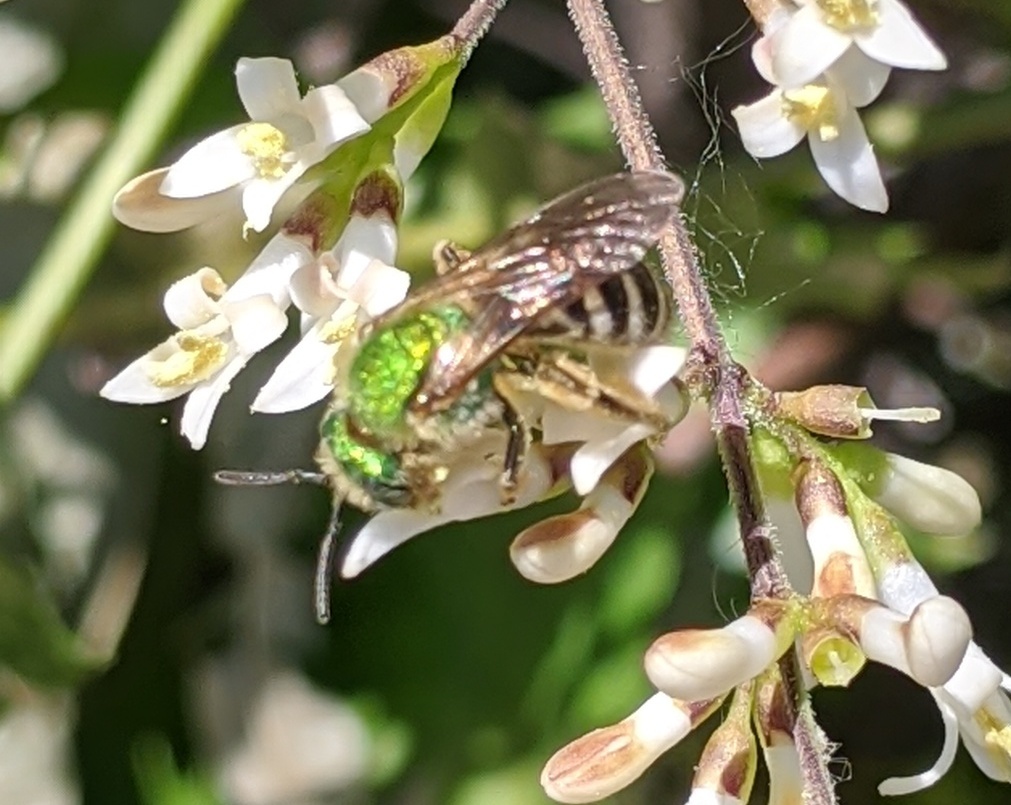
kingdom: Animalia
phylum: Arthropoda
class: Insecta
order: Hymenoptera
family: Halictidae
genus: Agapostemon
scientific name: Agapostemon virescens
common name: Bicolored striped sweat bee
